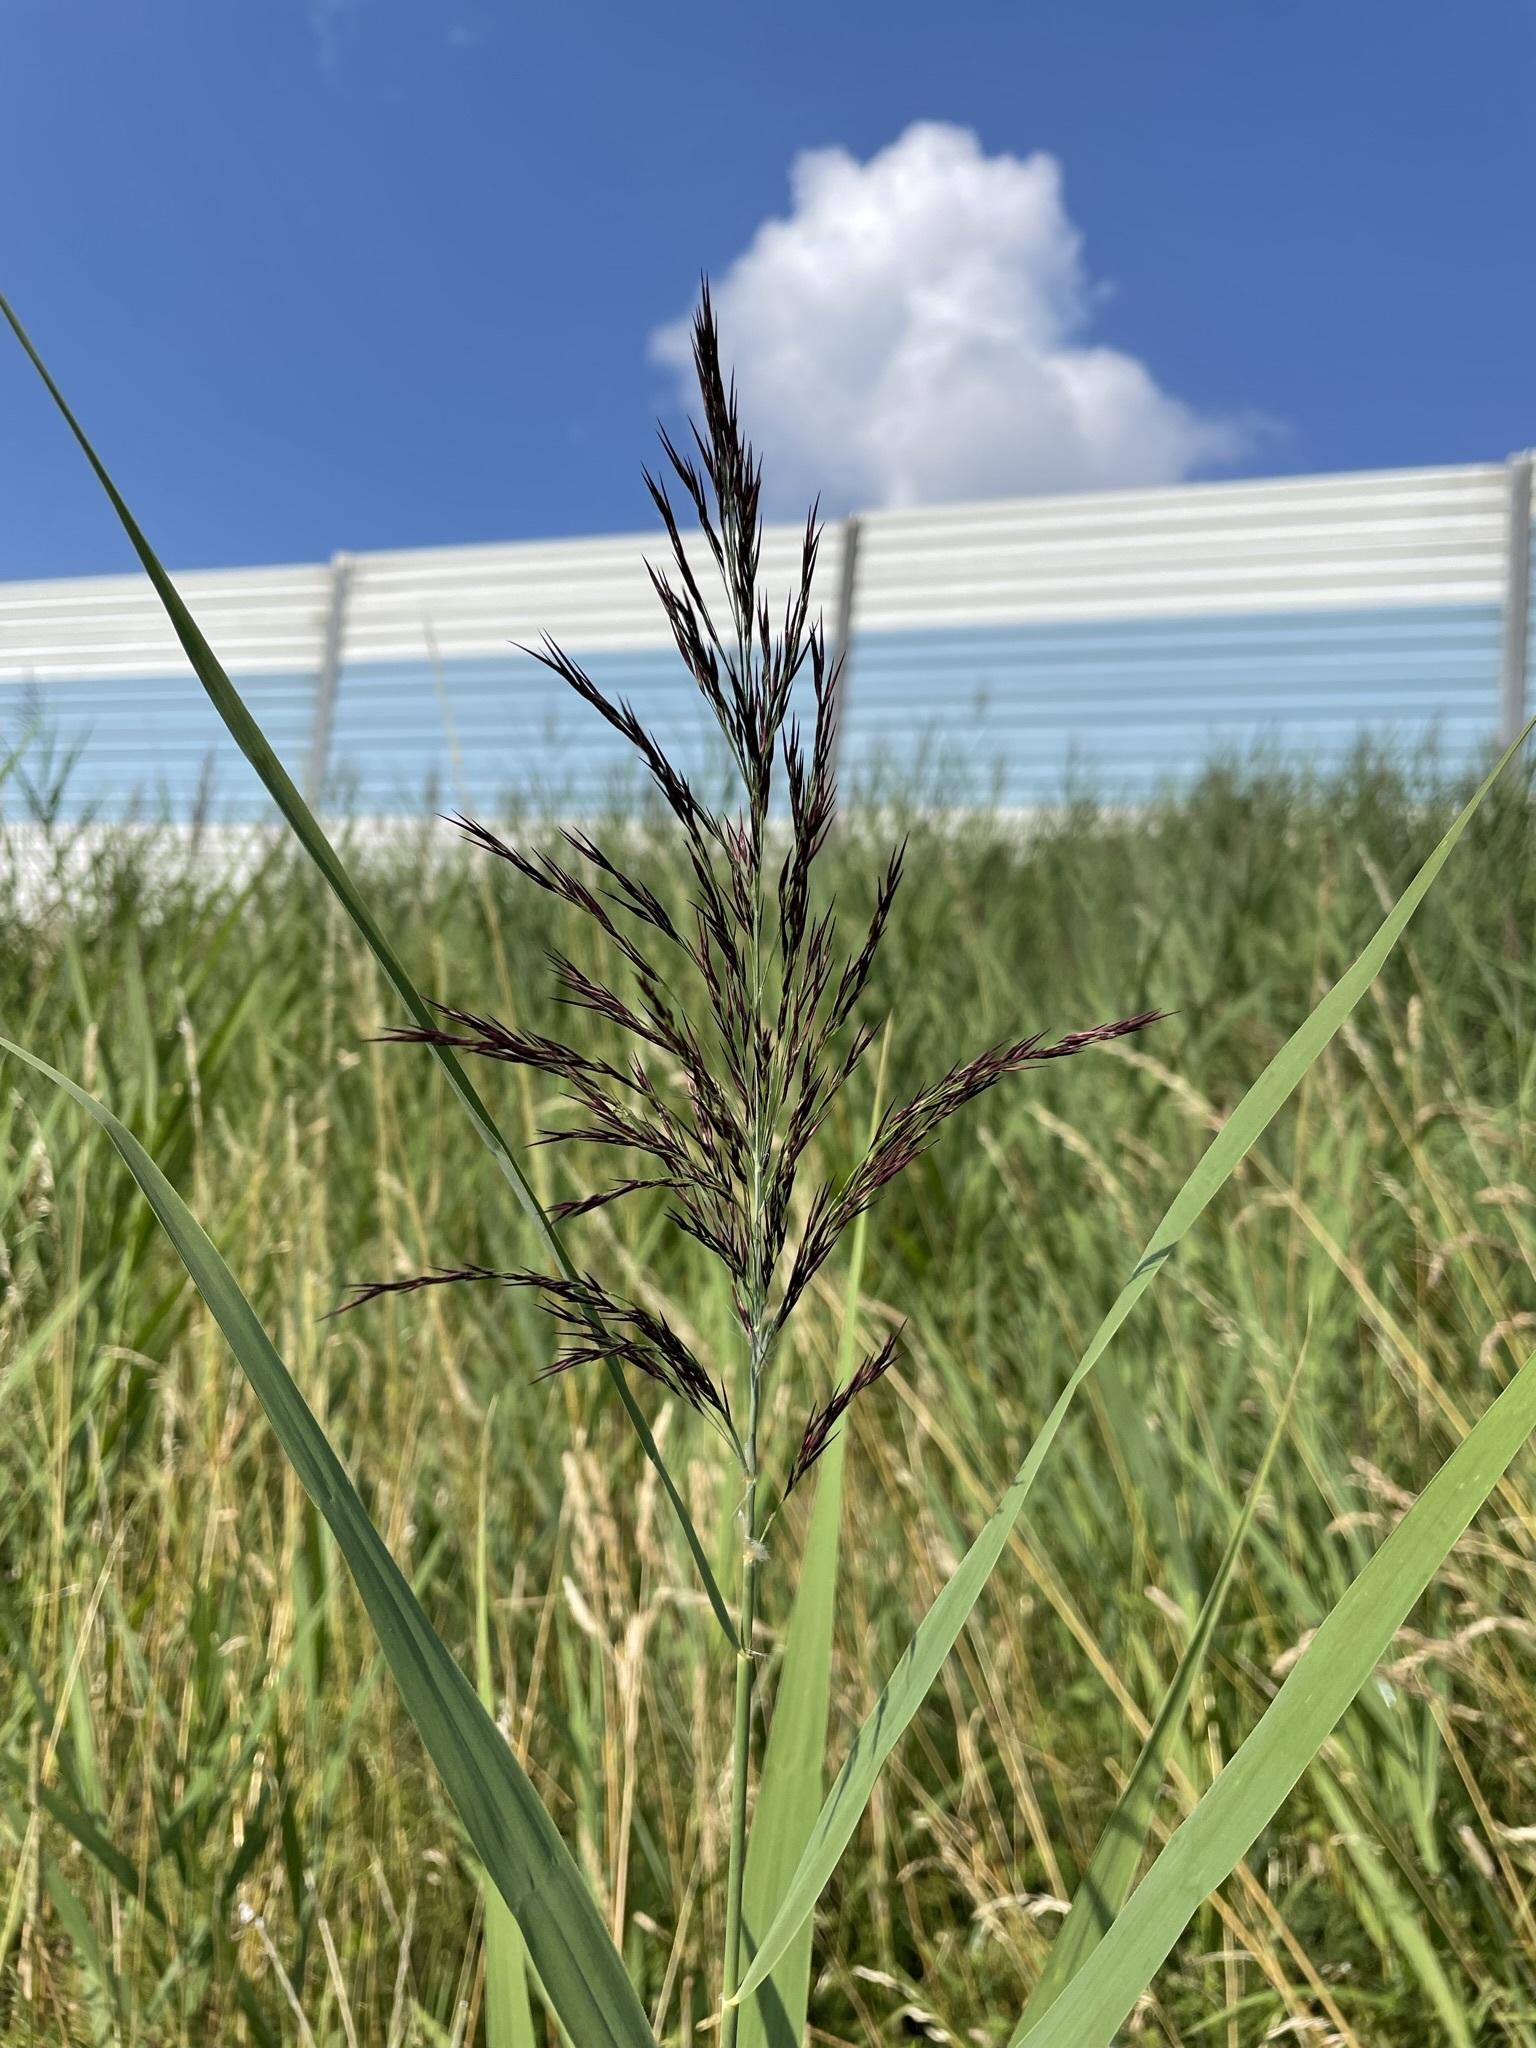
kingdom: Plantae
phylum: Tracheophyta
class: Liliopsida
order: Poales
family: Poaceae
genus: Phragmites
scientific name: Phragmites australis
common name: Common reed
